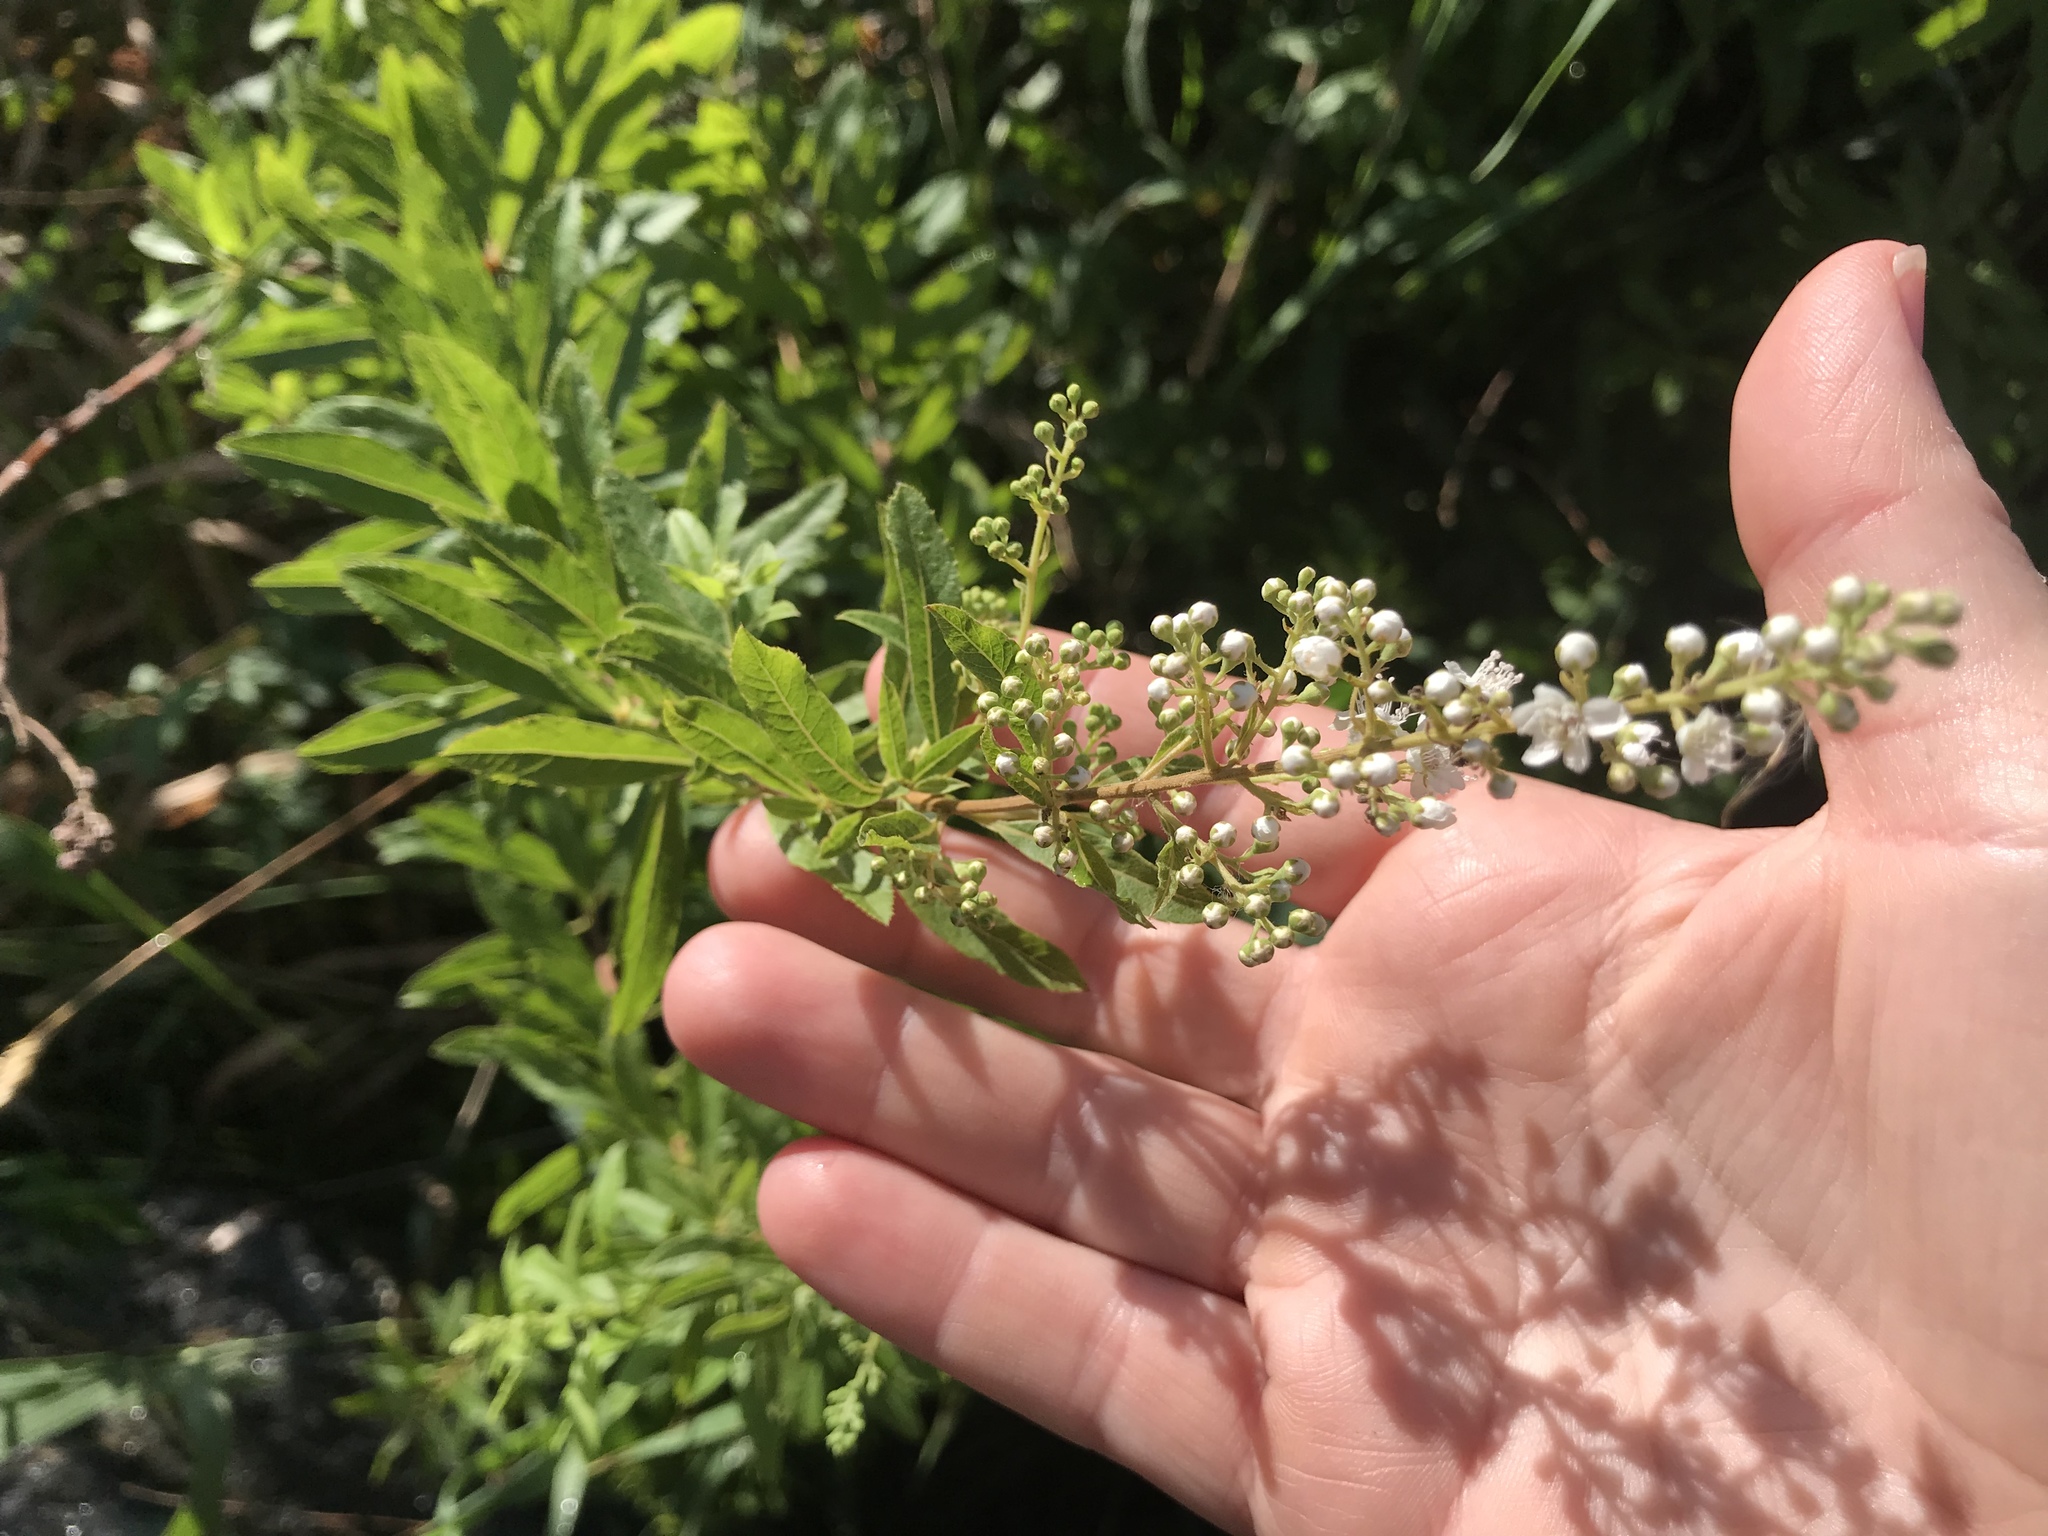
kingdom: Plantae
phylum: Tracheophyta
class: Magnoliopsida
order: Rosales
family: Rosaceae
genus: Spiraea
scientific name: Spiraea alba
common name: Pale bridewort
